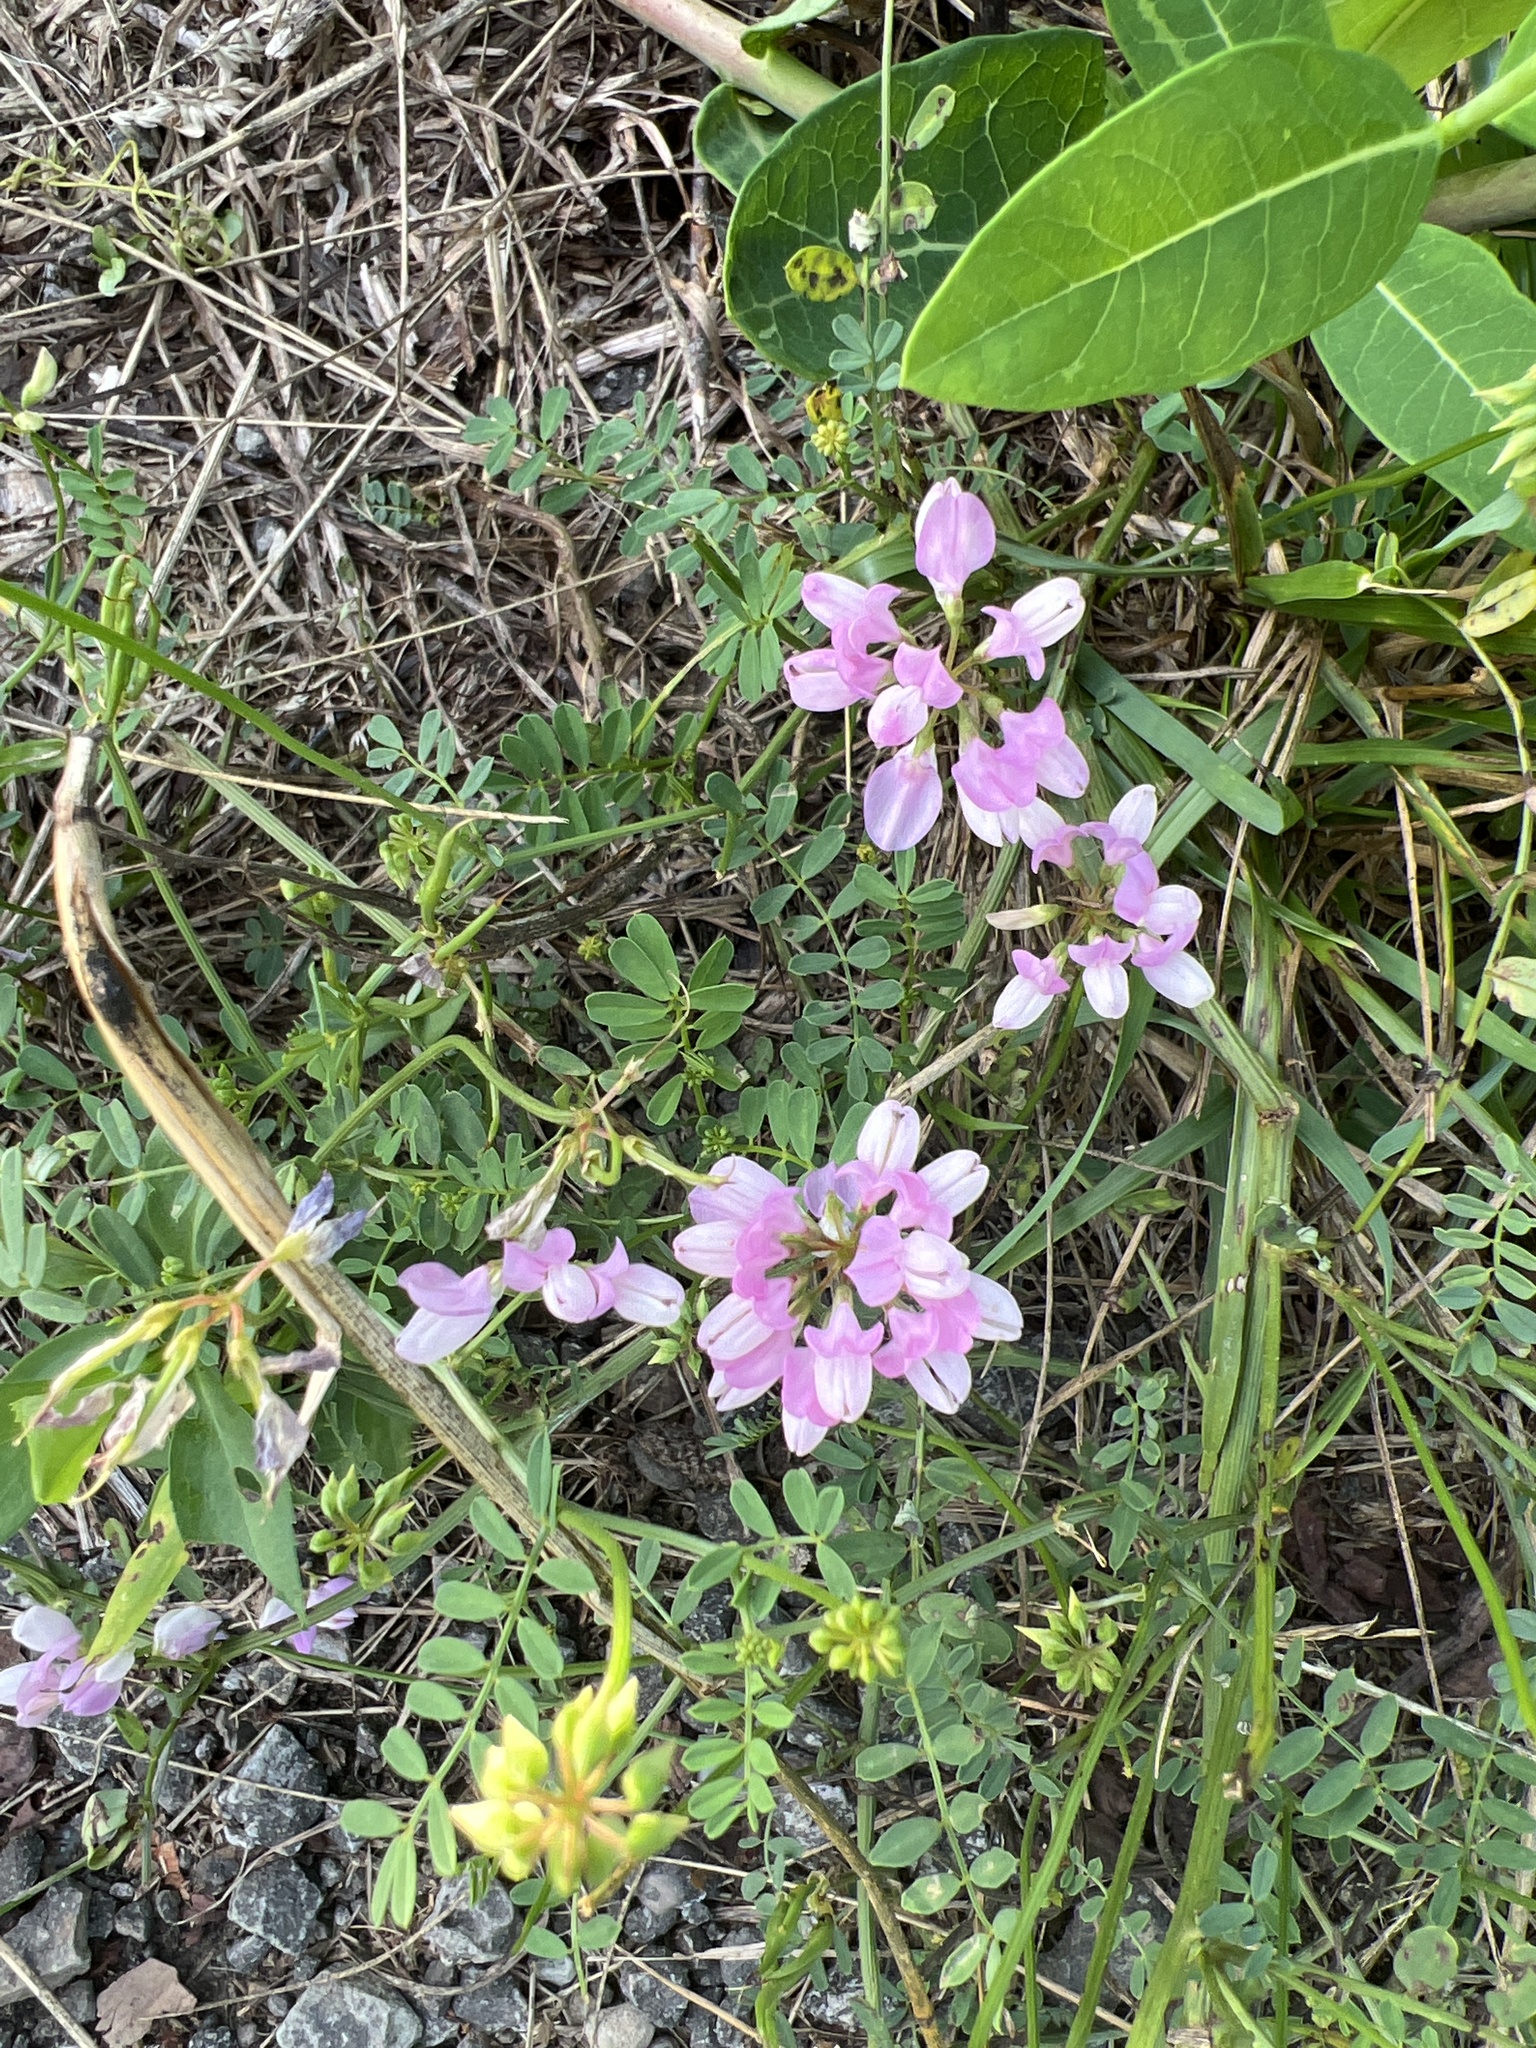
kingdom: Plantae
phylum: Tracheophyta
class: Magnoliopsida
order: Fabales
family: Fabaceae
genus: Coronilla
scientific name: Coronilla varia
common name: Crownvetch
